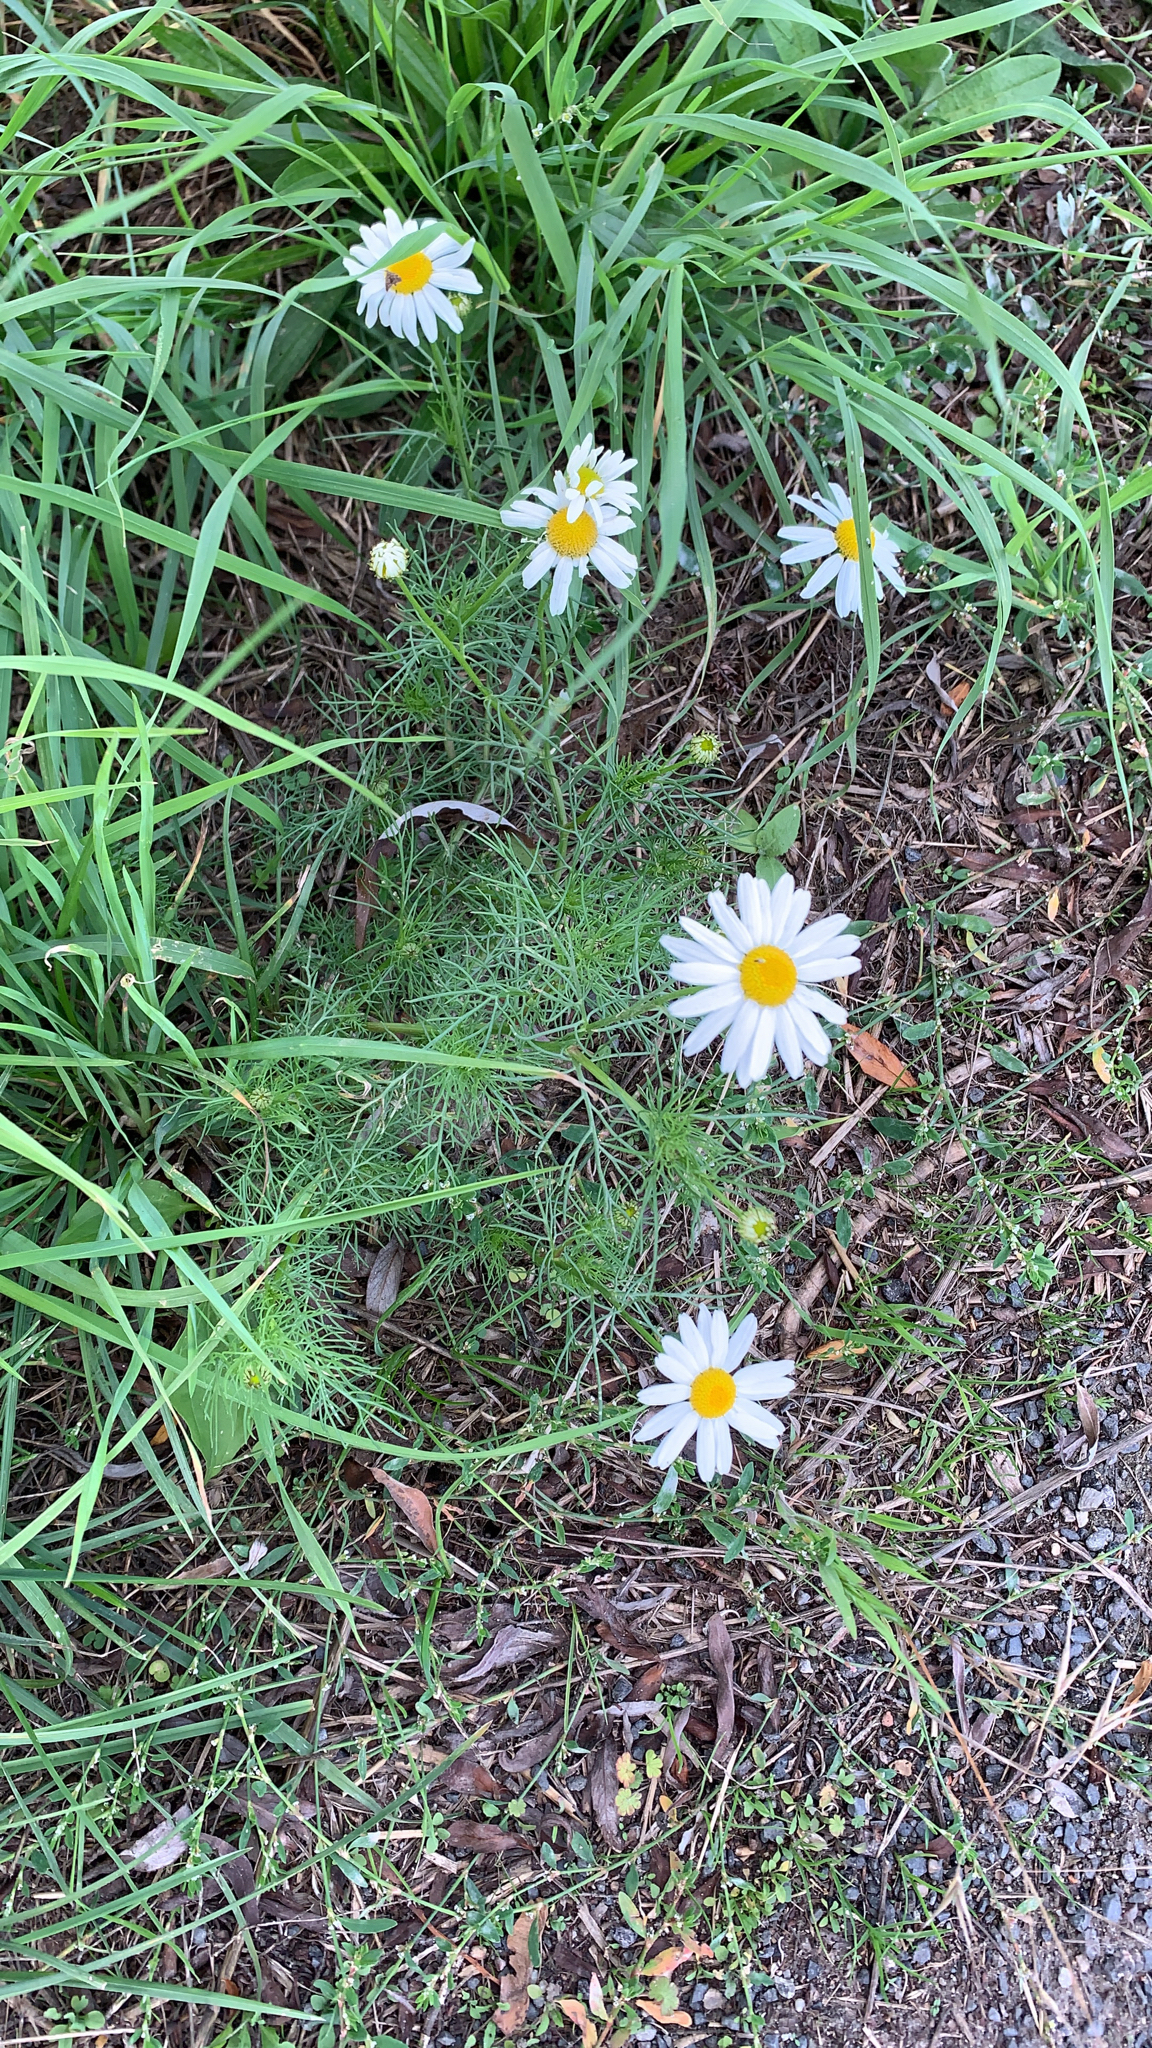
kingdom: Plantae
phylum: Tracheophyta
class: Magnoliopsida
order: Asterales
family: Asteraceae
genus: Tripleurospermum
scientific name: Tripleurospermum inodorum
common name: Scentless mayweed
